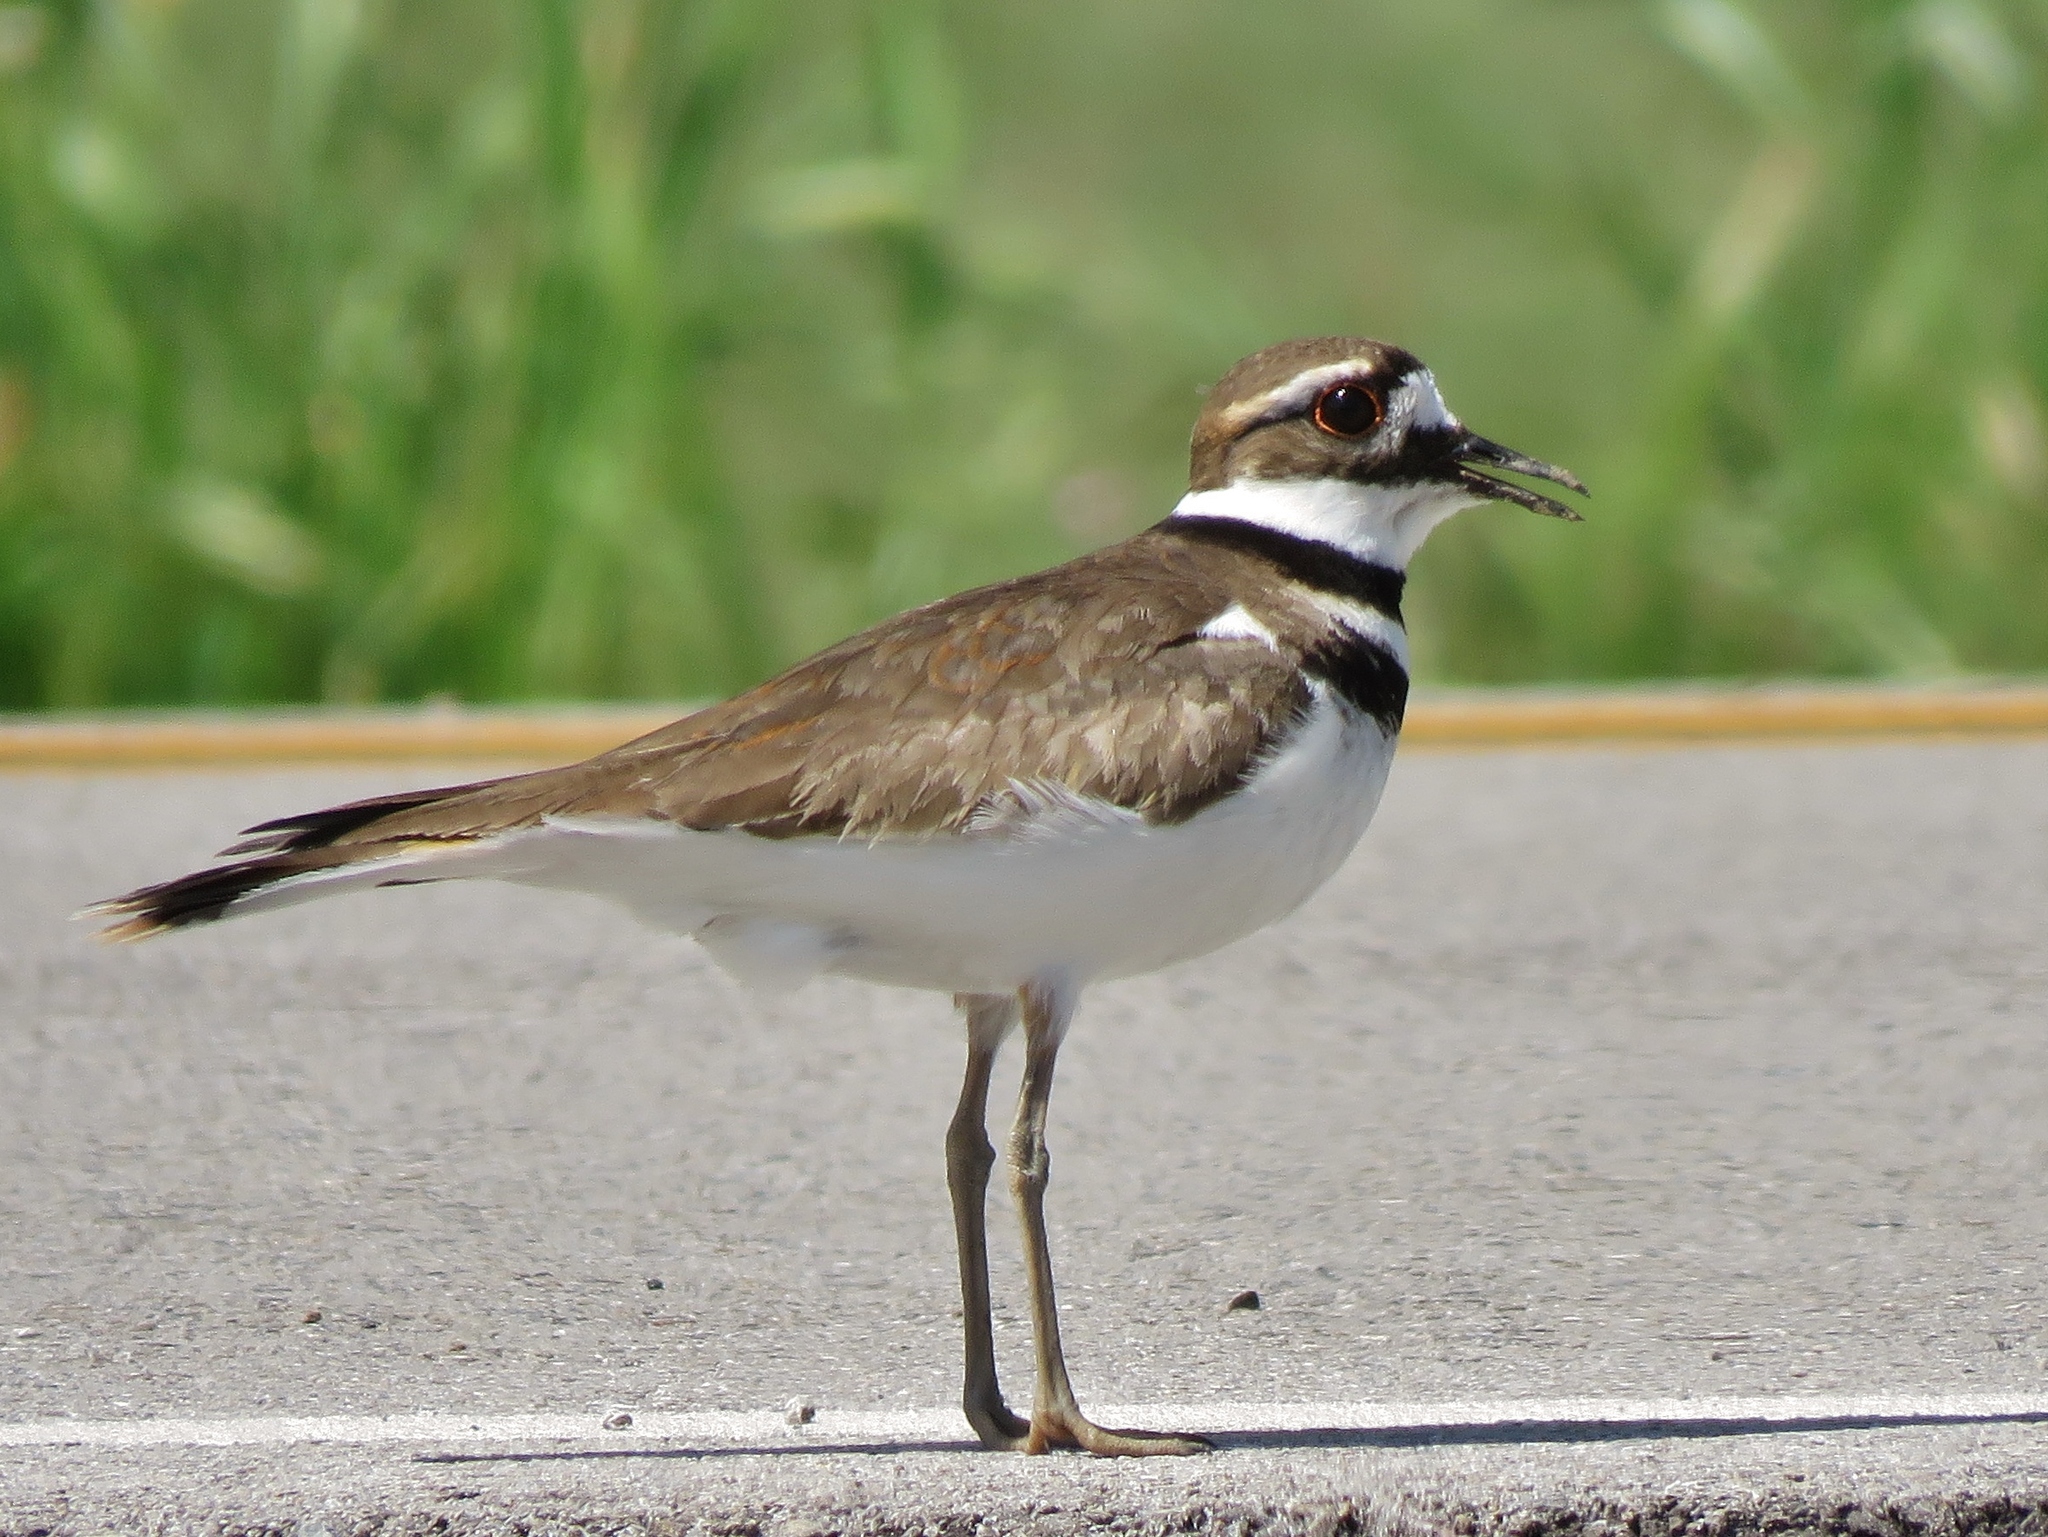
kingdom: Animalia
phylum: Chordata
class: Aves
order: Charadriiformes
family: Charadriidae
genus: Charadrius
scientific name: Charadrius vociferus
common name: Killdeer
